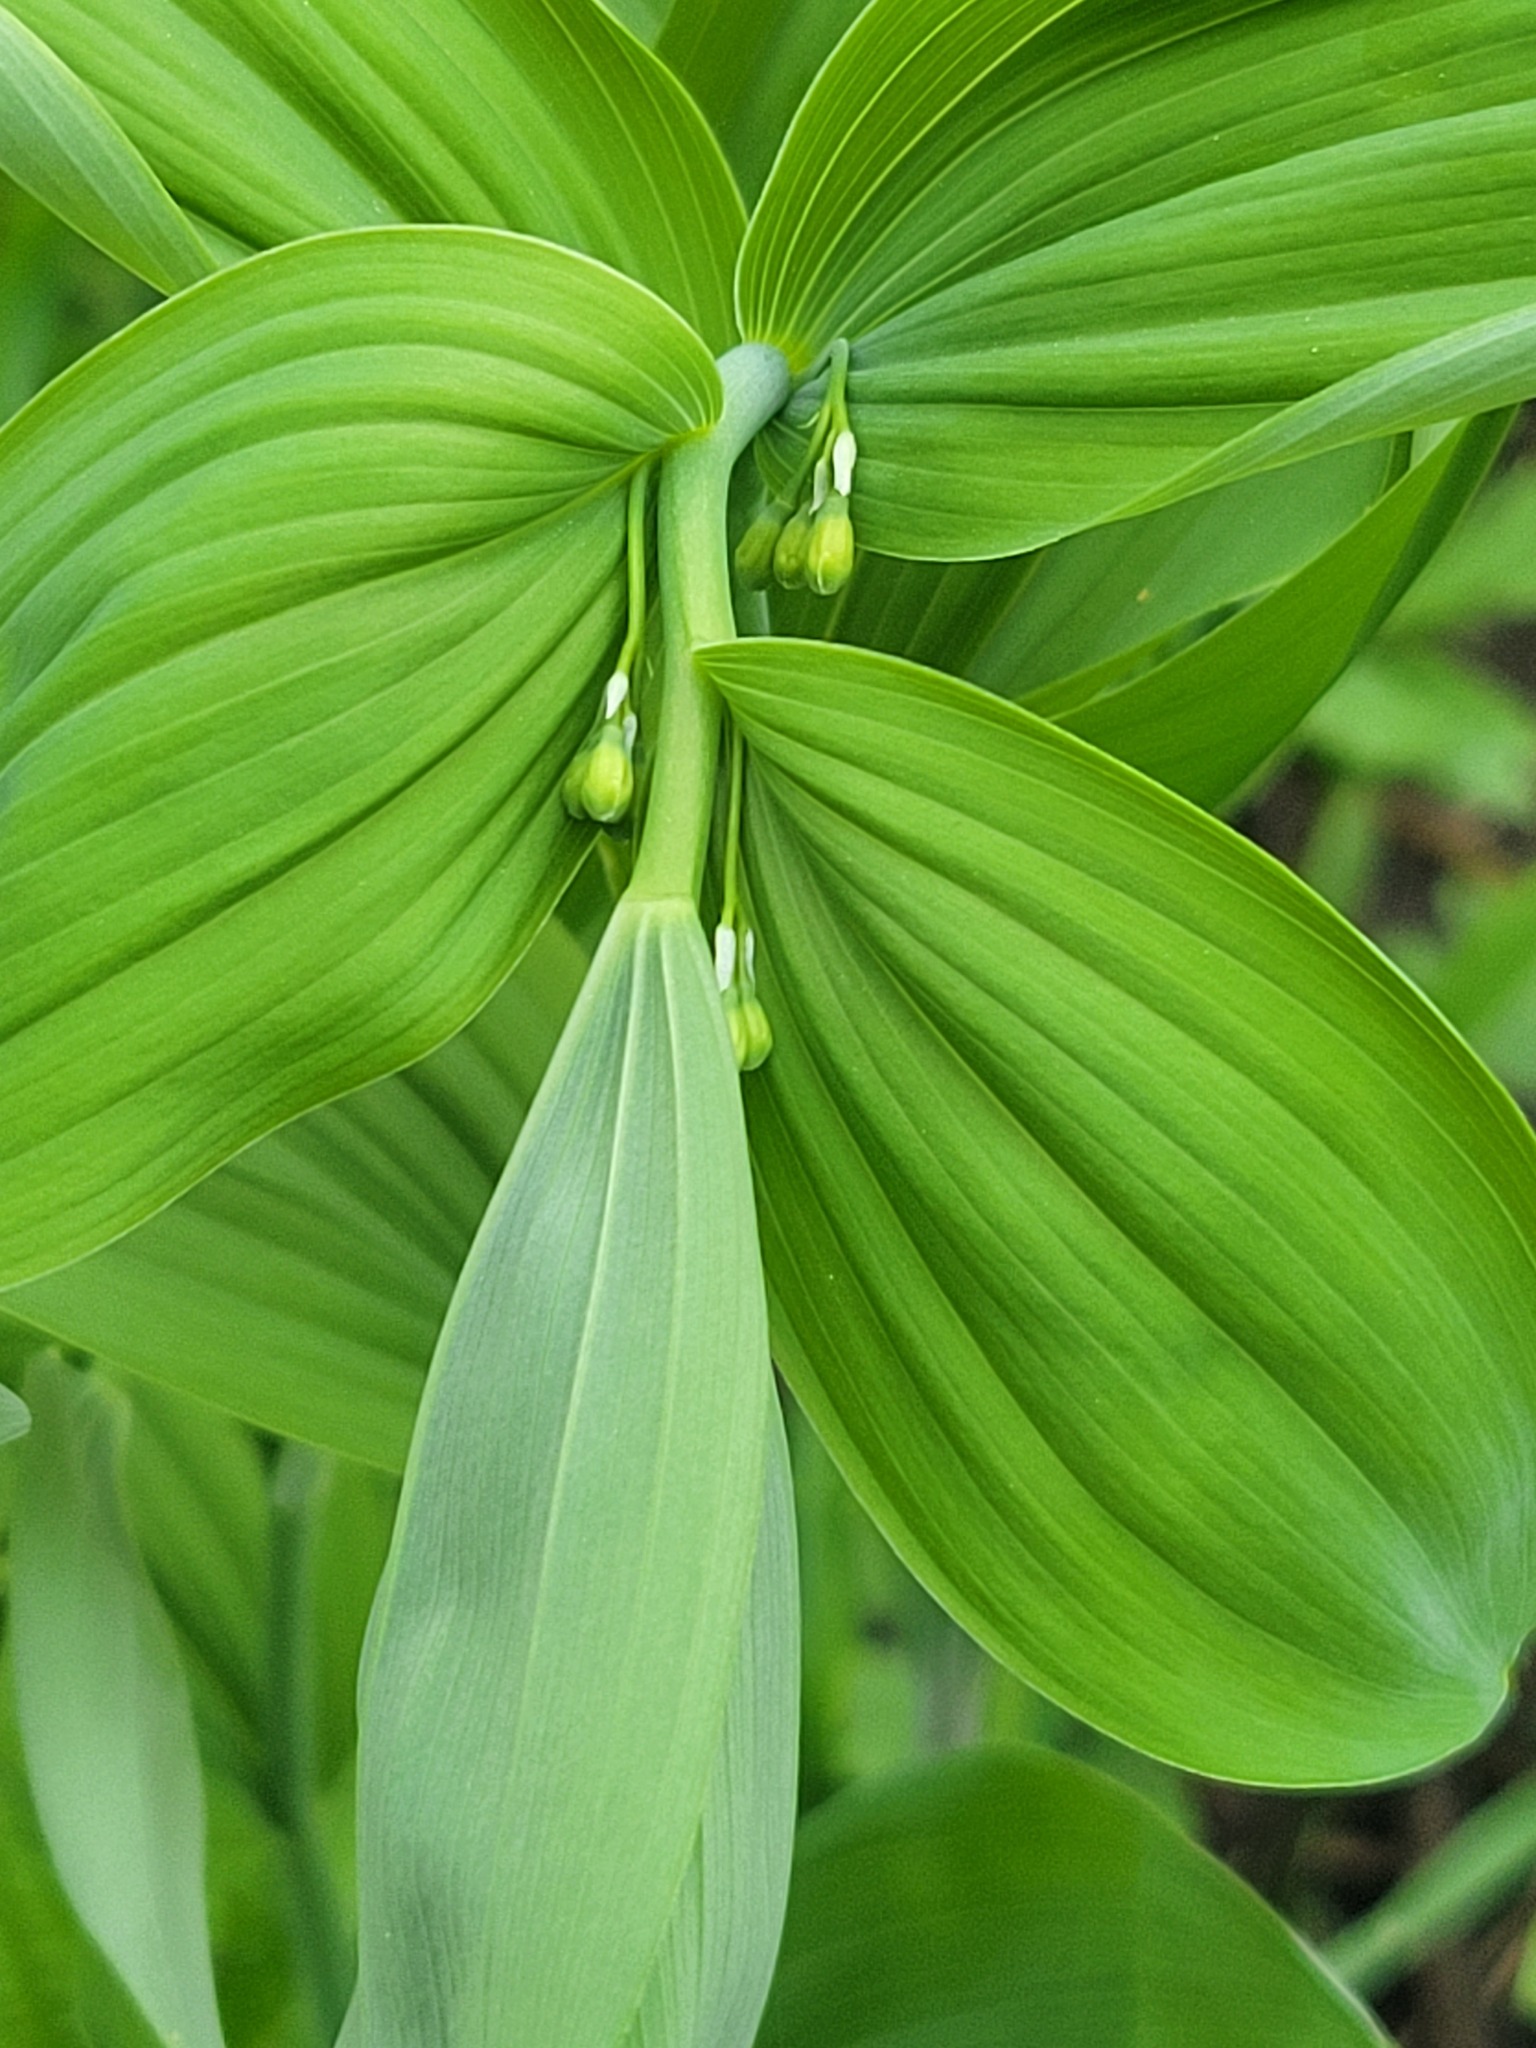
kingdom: Plantae
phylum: Tracheophyta
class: Liliopsida
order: Asparagales
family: Asparagaceae
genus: Polygonatum
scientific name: Polygonatum biflorum
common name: American solomon's-seal
